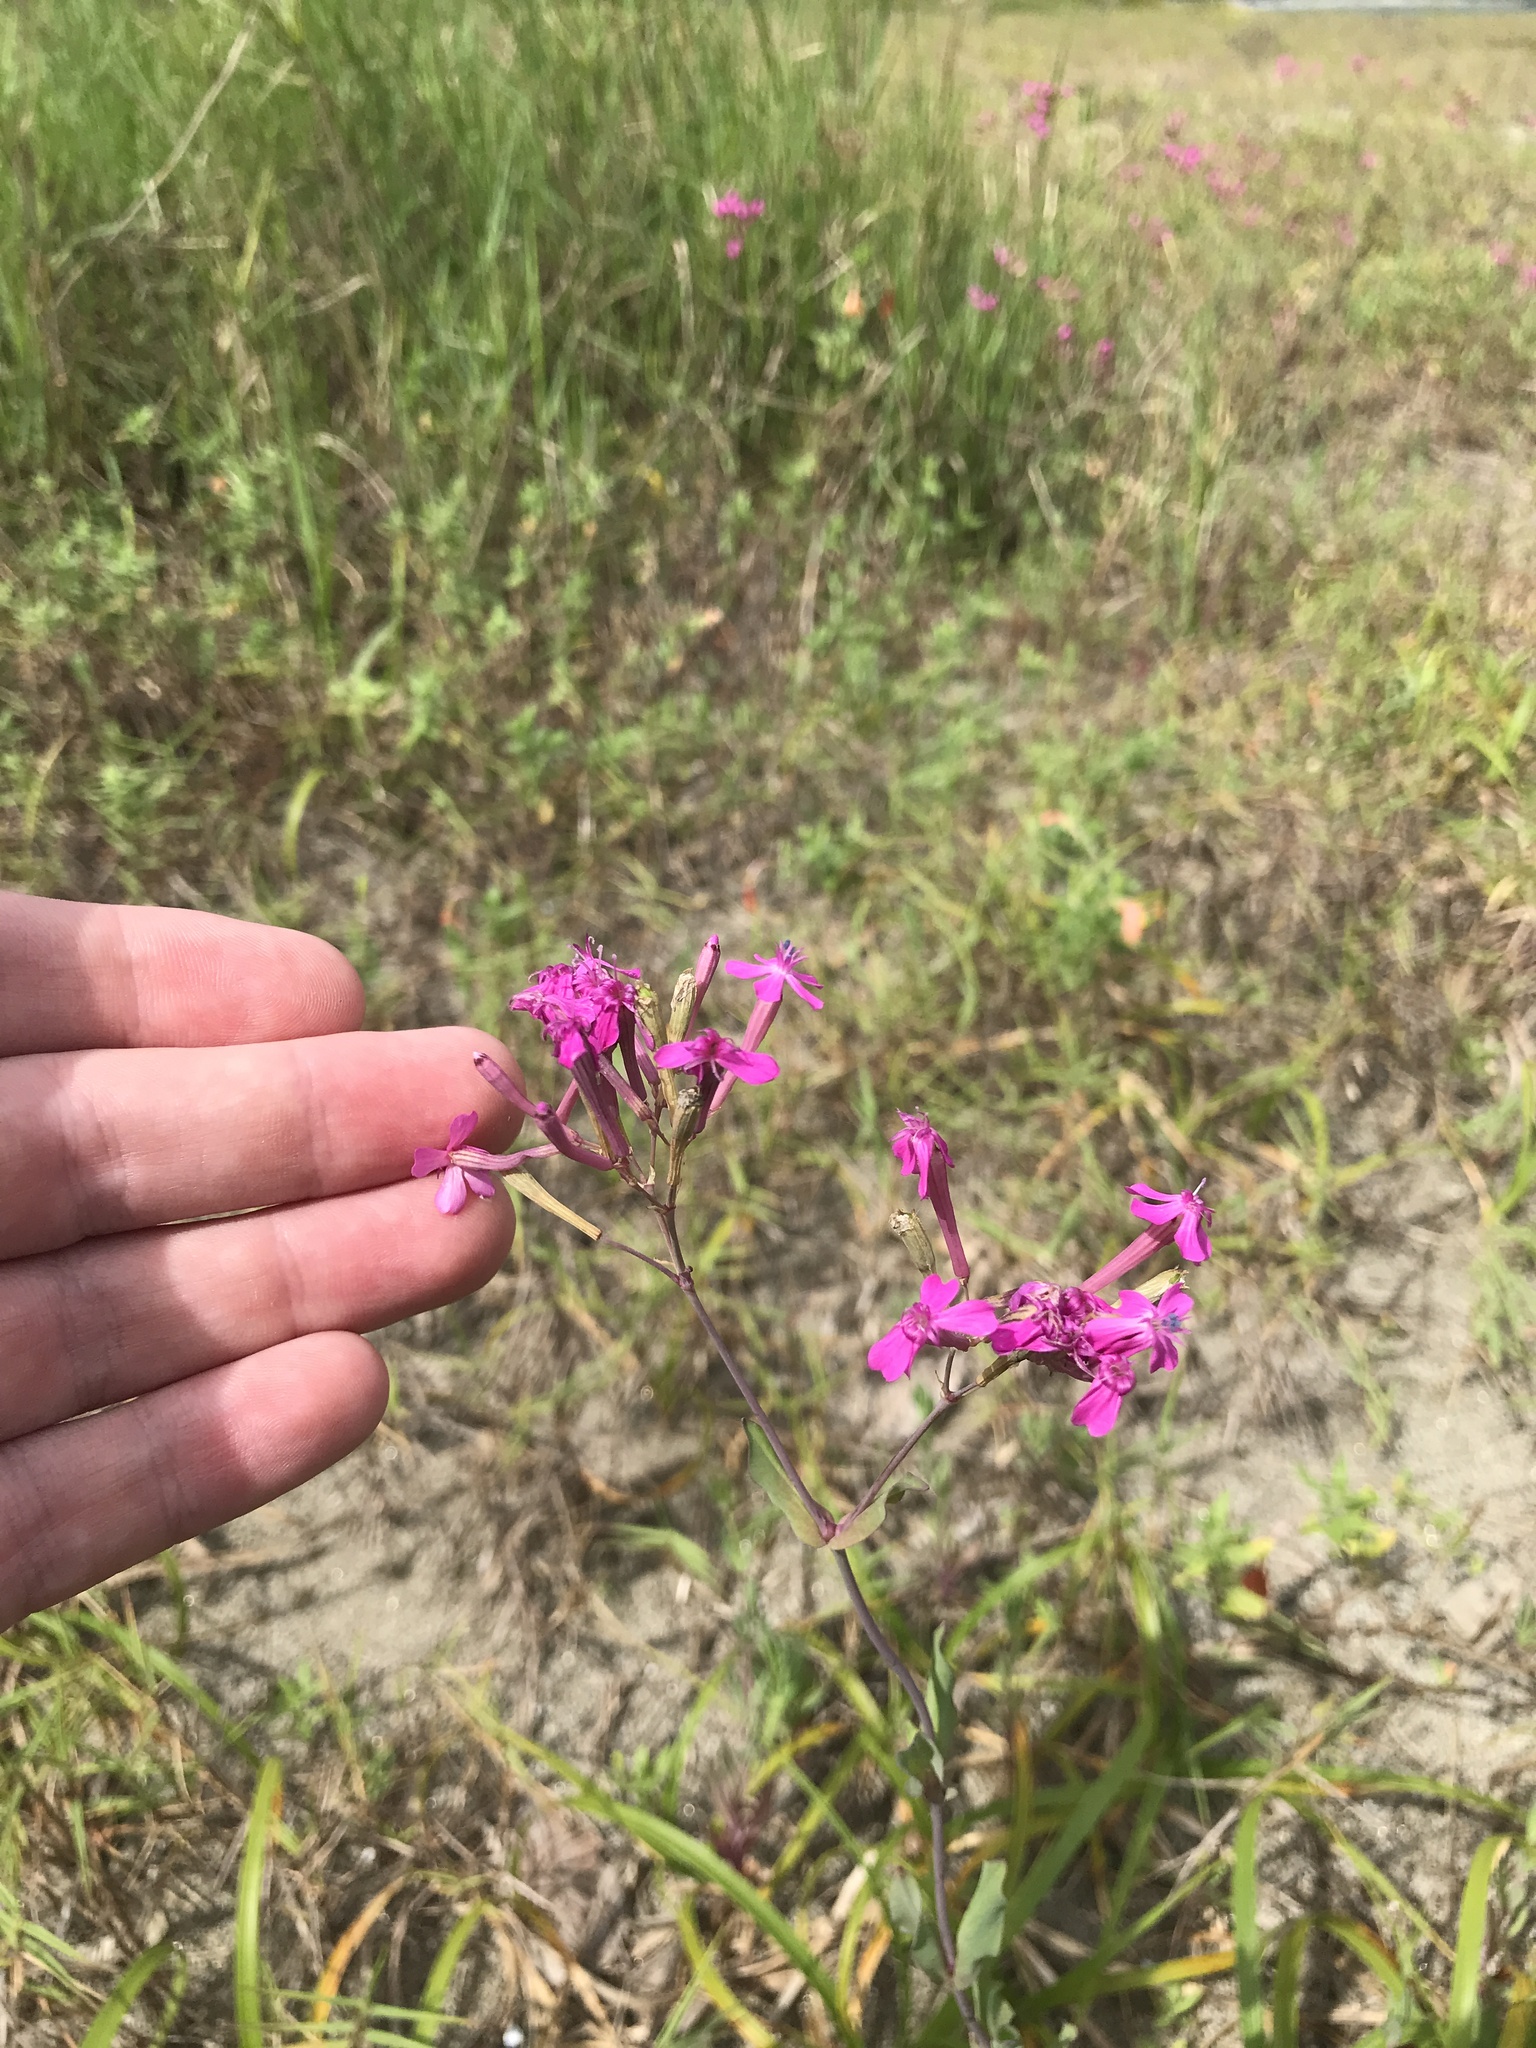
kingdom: Plantae
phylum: Tracheophyta
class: Magnoliopsida
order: Caryophyllales
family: Caryophyllaceae
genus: Atocion
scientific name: Atocion armeria
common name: Sweet william catchfly
